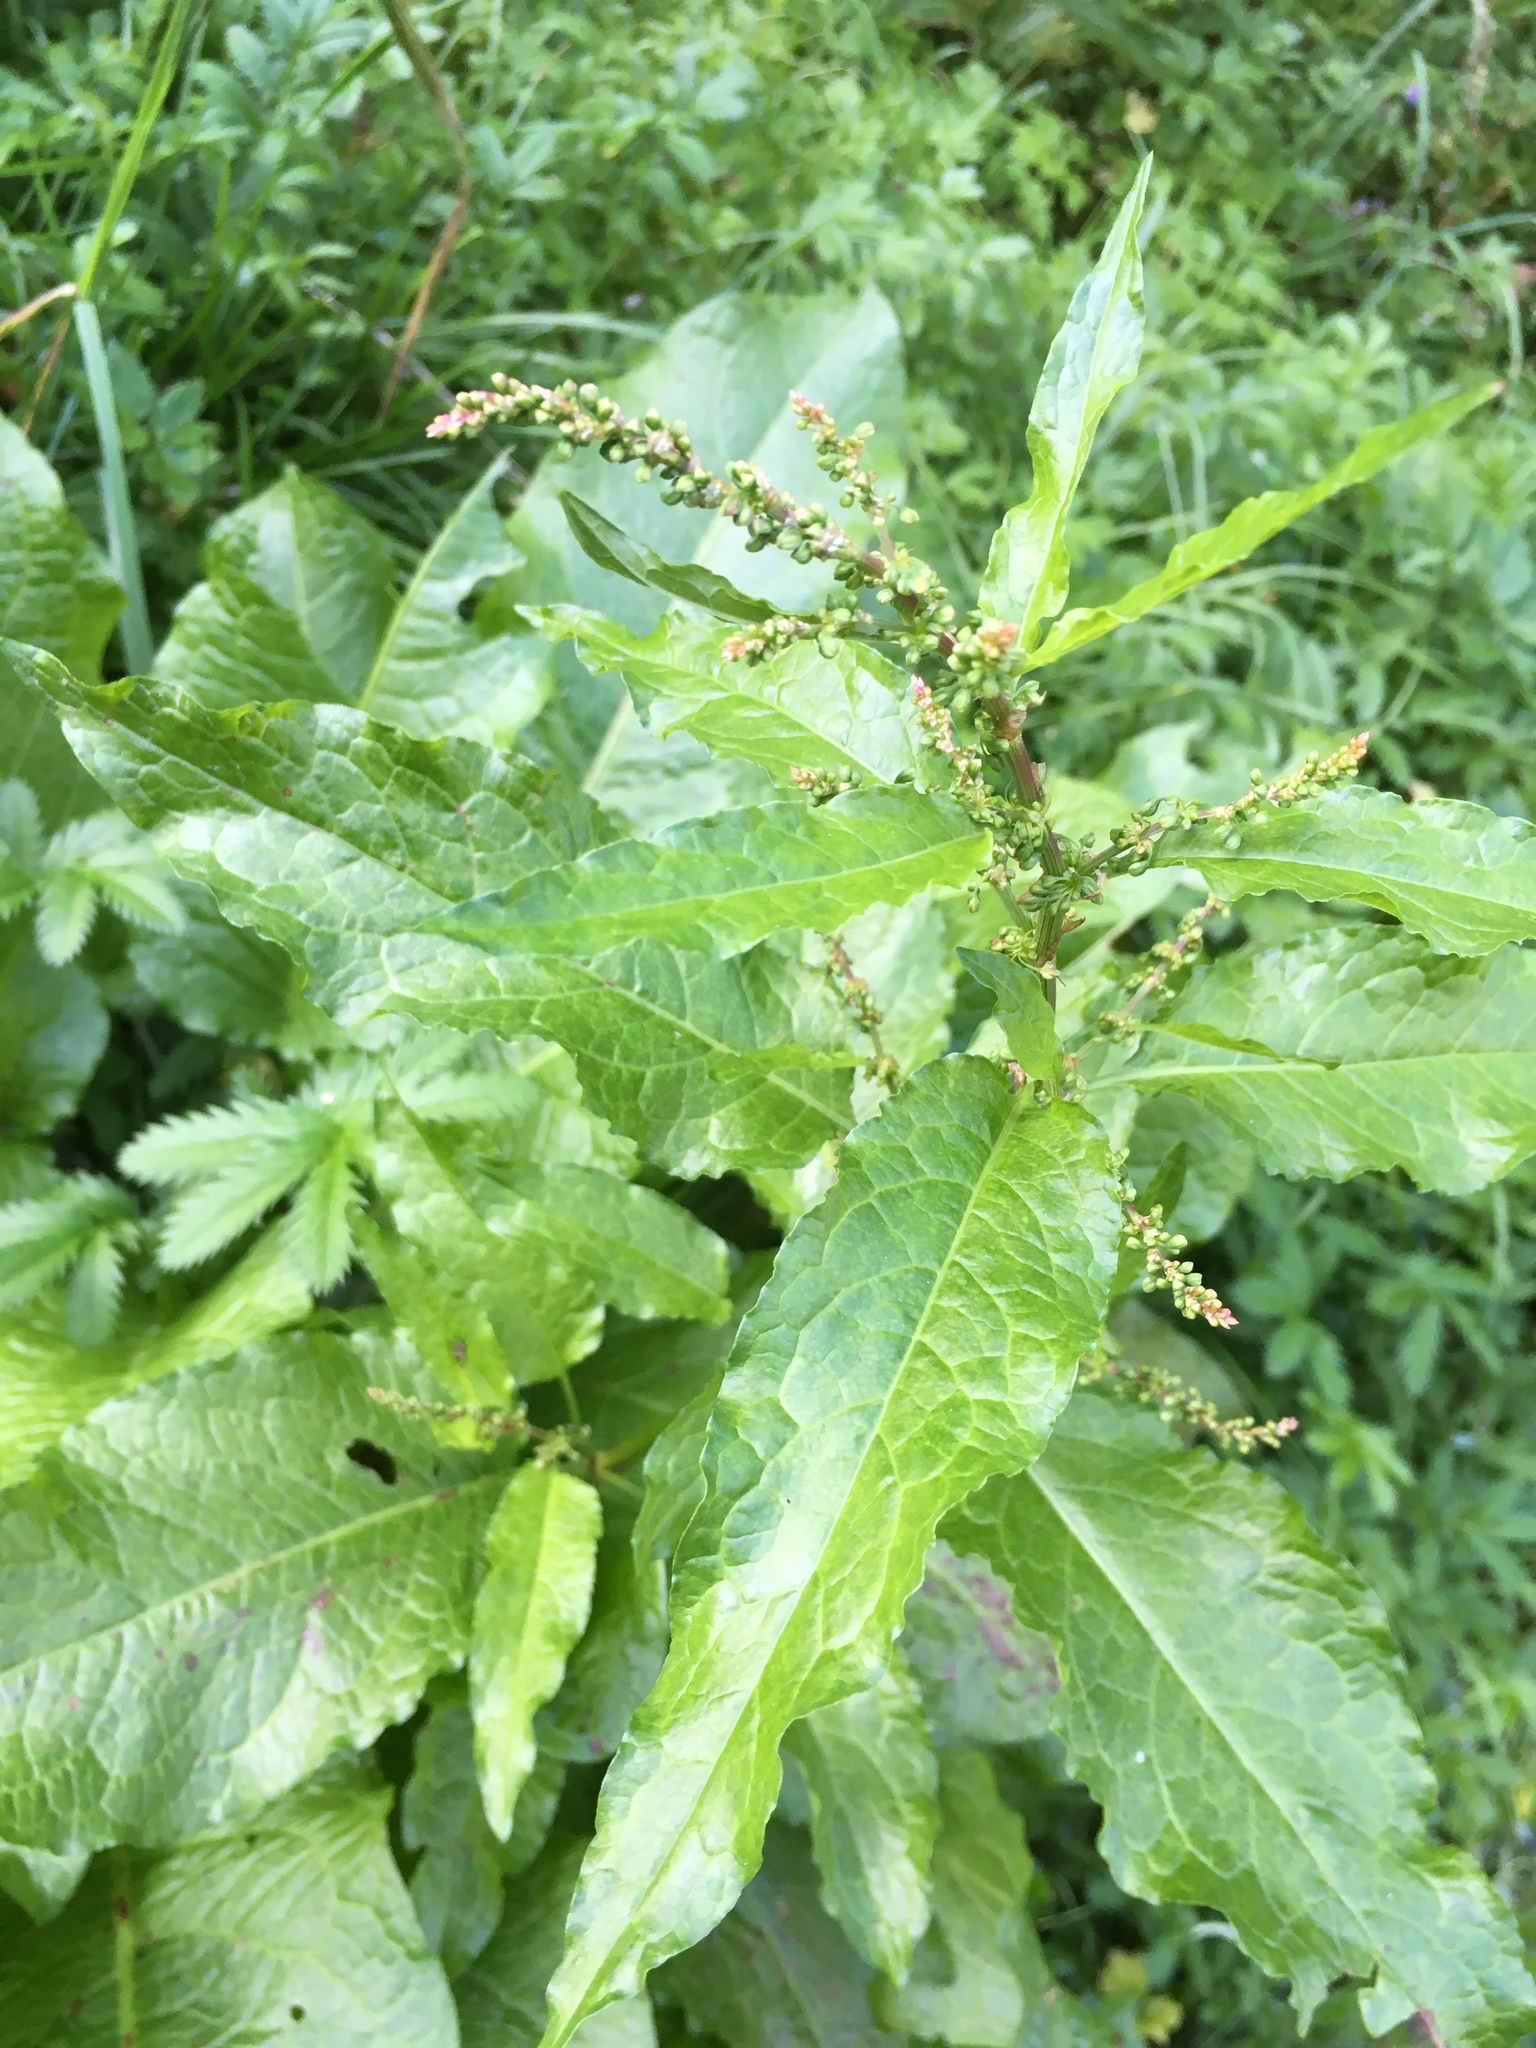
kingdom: Plantae
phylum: Tracheophyta
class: Magnoliopsida
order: Caryophyllales
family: Polygonaceae
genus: Rumex
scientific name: Rumex obtusifolius
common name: Bitter dock
